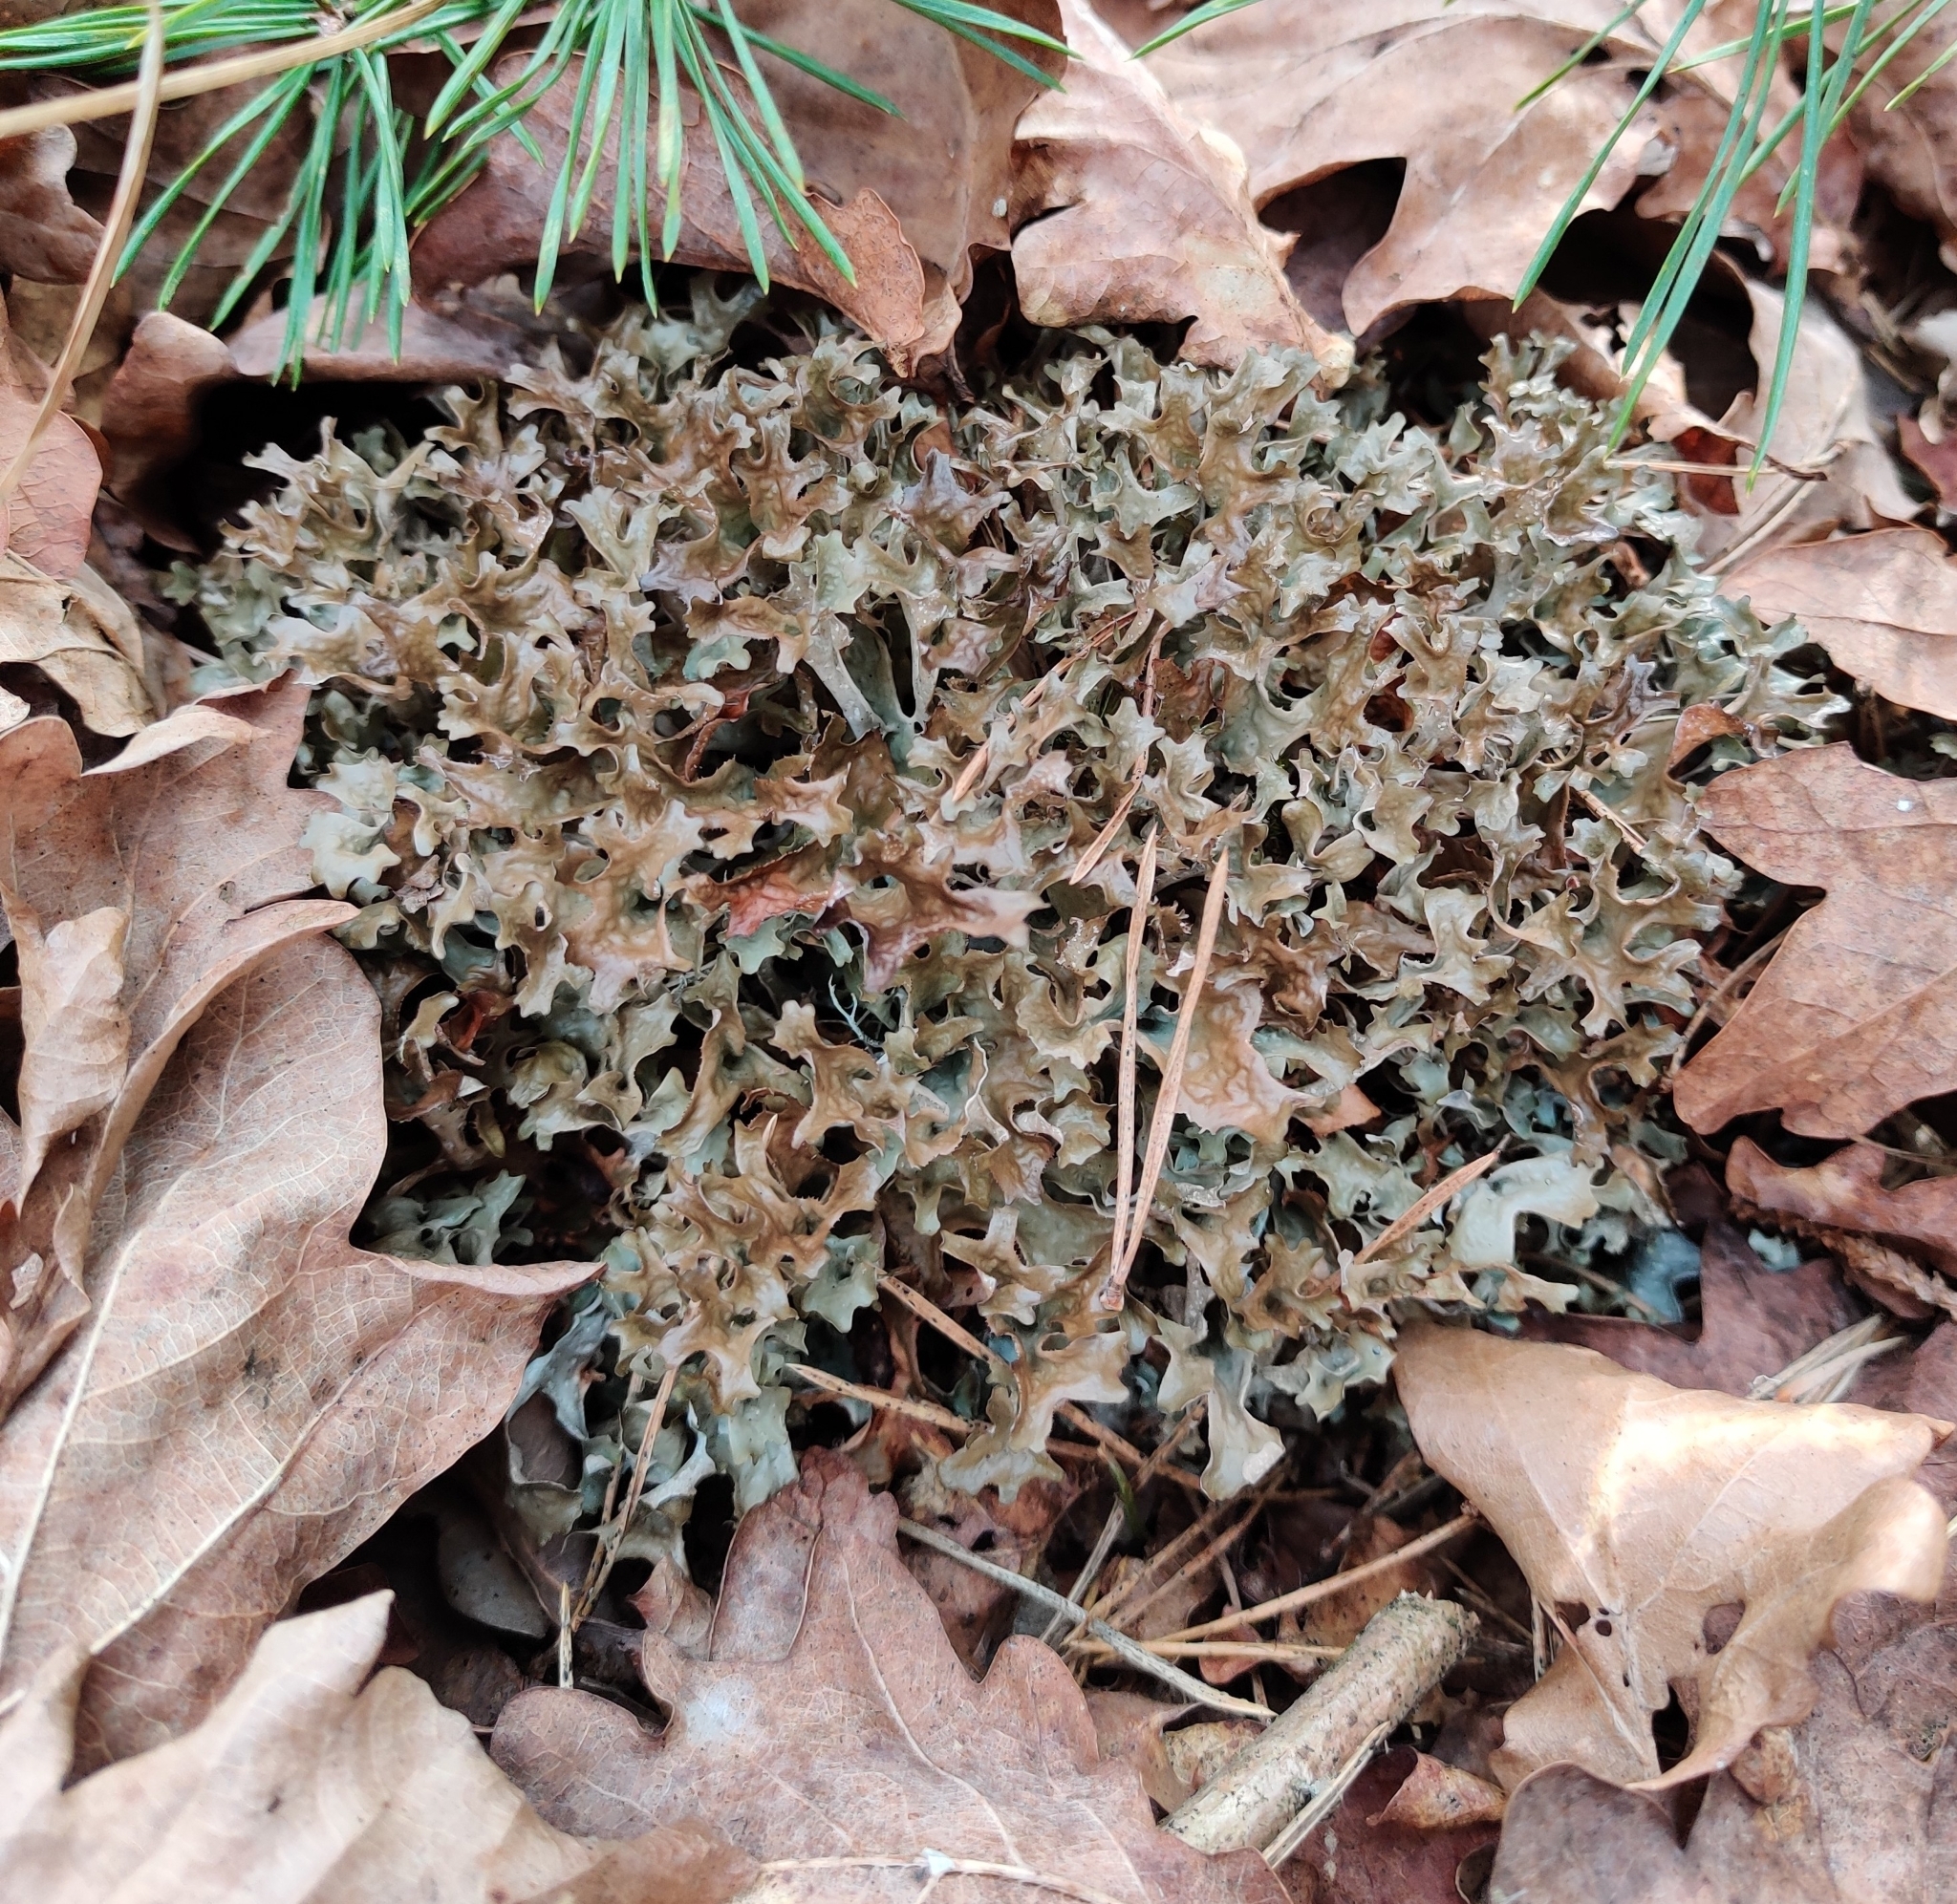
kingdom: Fungi
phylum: Ascomycota
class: Lecanoromycetes
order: Lecanorales
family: Parmeliaceae
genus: Cetraria
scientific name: Cetraria islandica
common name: Iceland lichen
